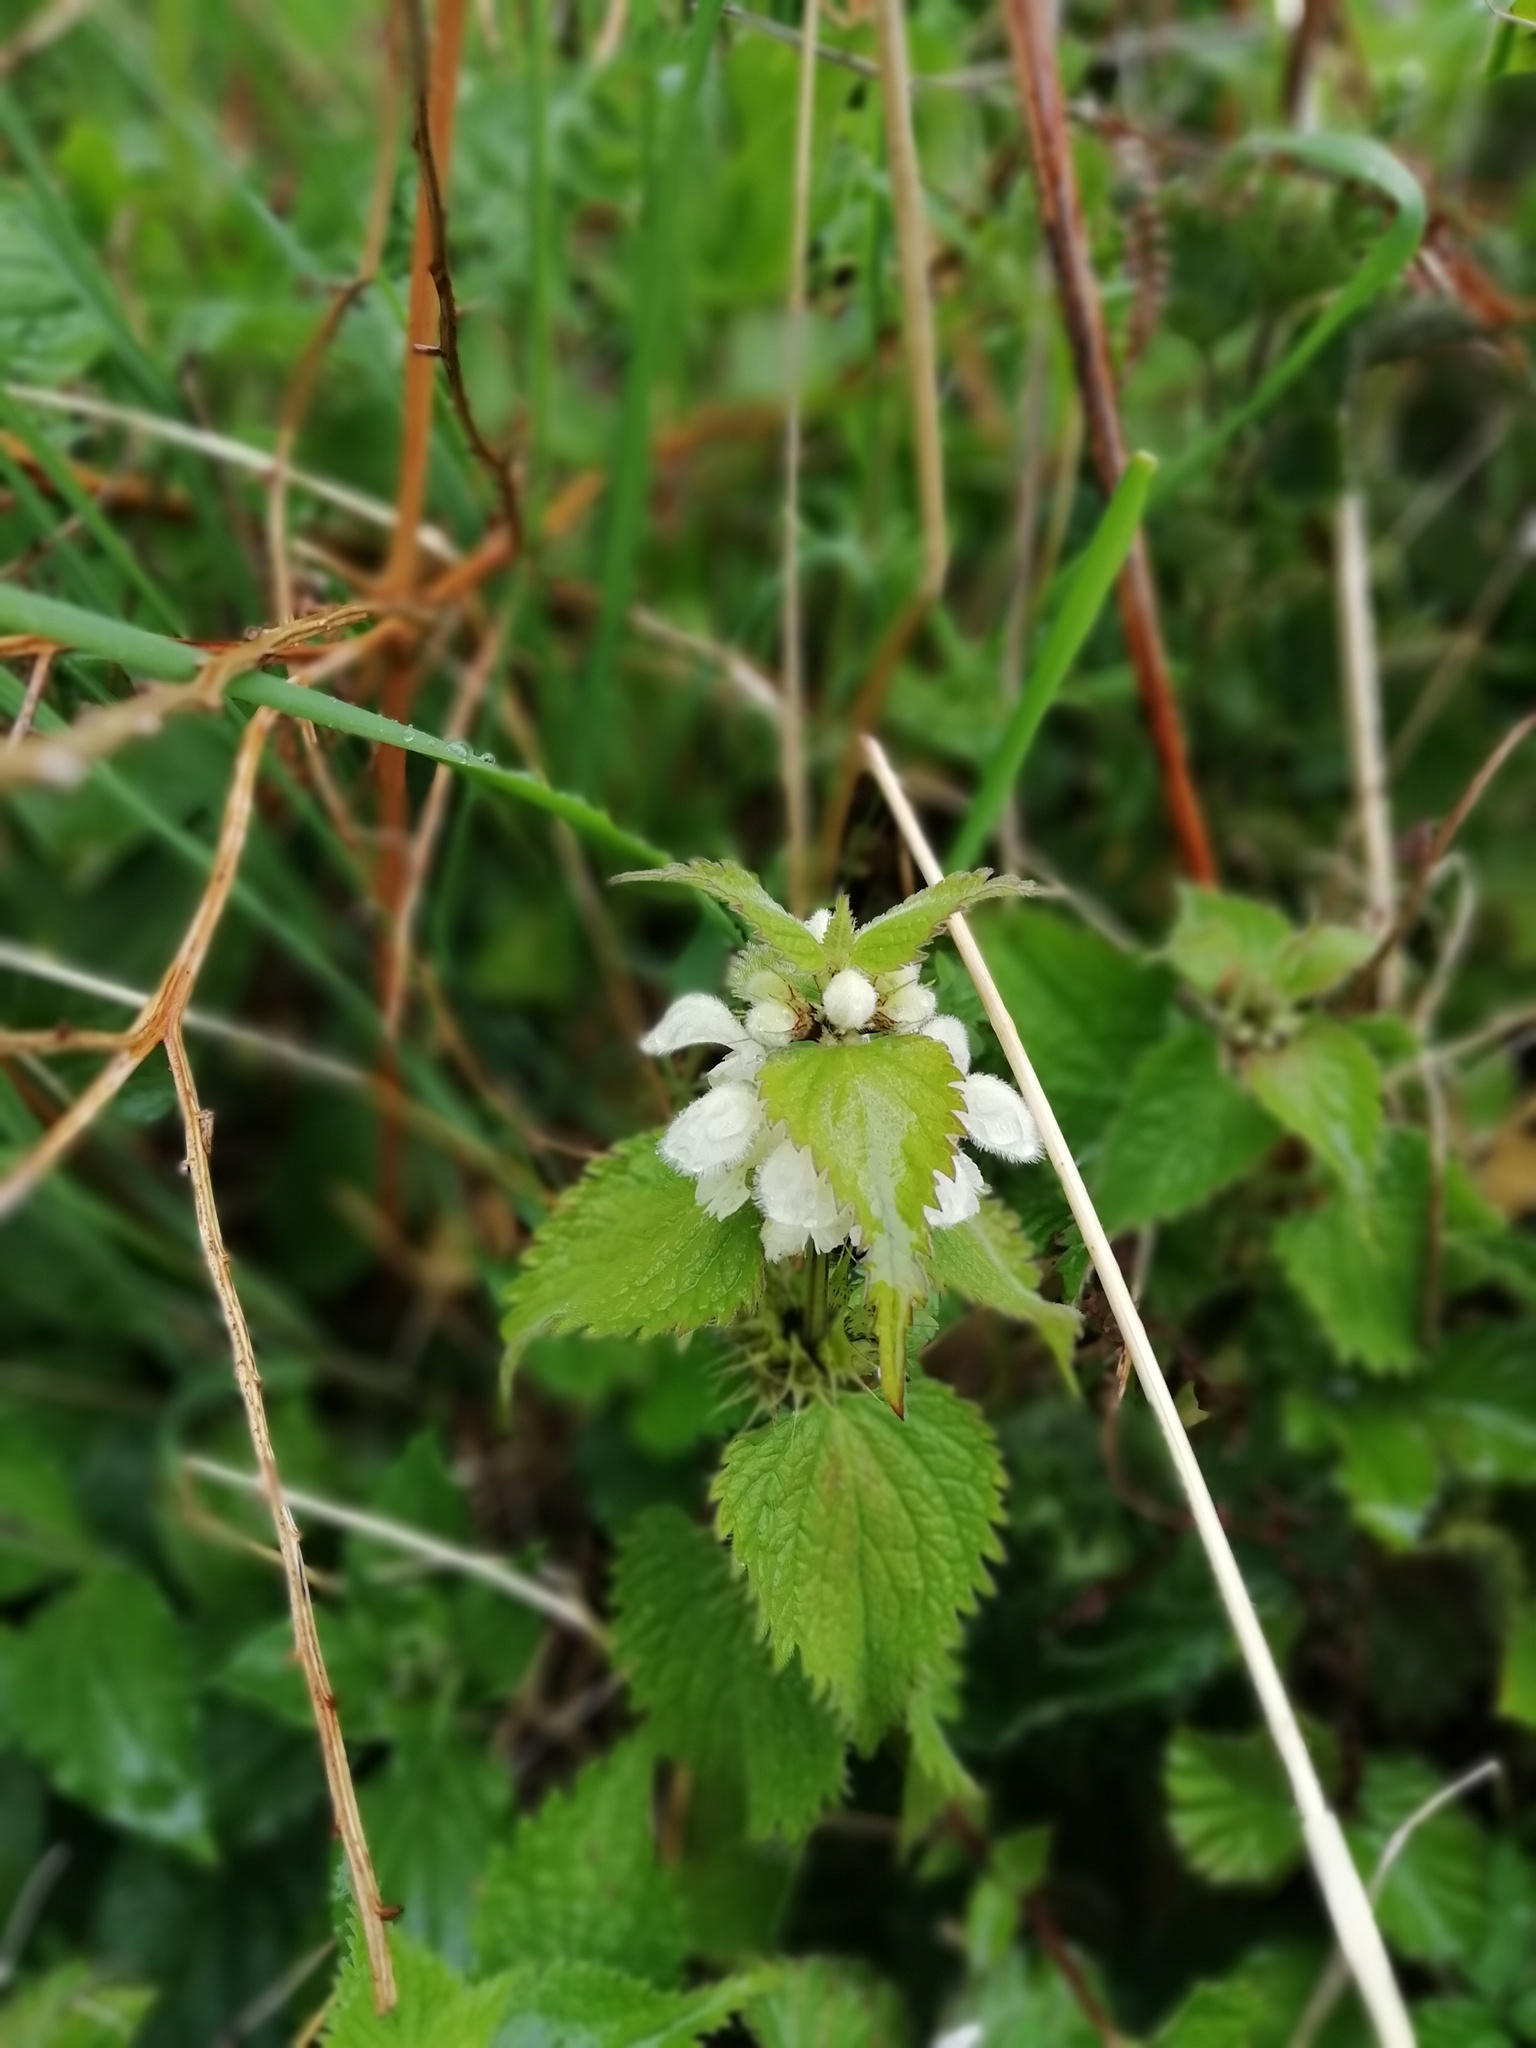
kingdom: Plantae
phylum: Tracheophyta
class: Magnoliopsida
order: Lamiales
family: Lamiaceae
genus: Lamium
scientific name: Lamium album
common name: White dead-nettle
